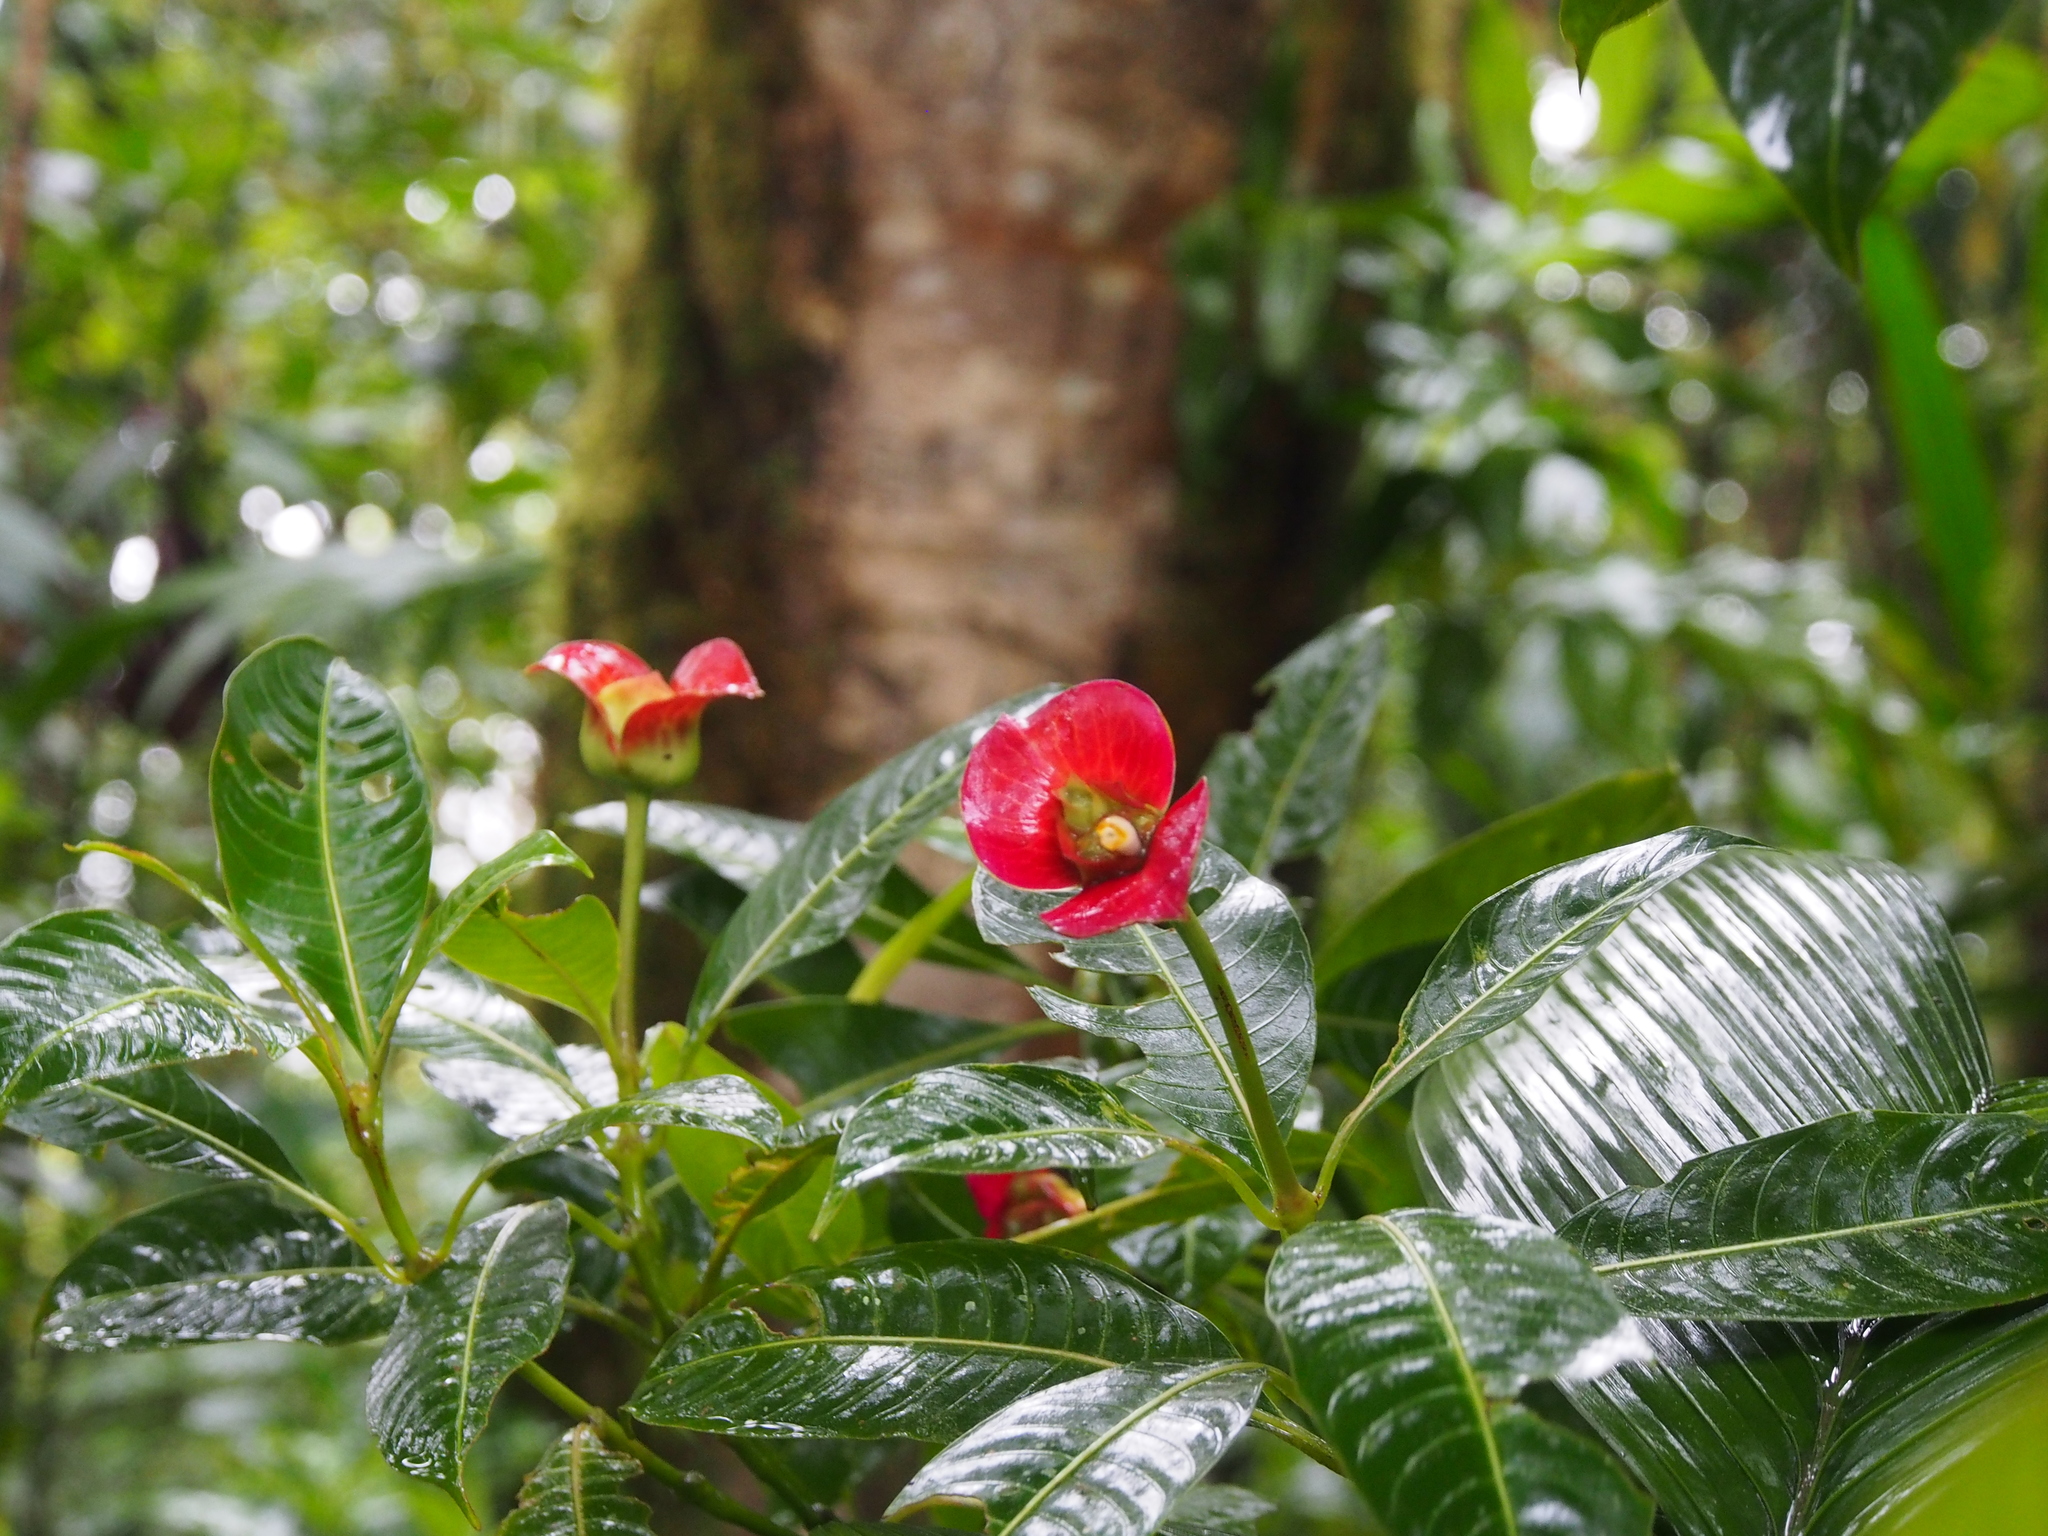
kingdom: Plantae
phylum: Tracheophyta
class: Magnoliopsida
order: Gentianales
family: Rubiaceae
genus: Palicourea
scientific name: Palicourea elata
